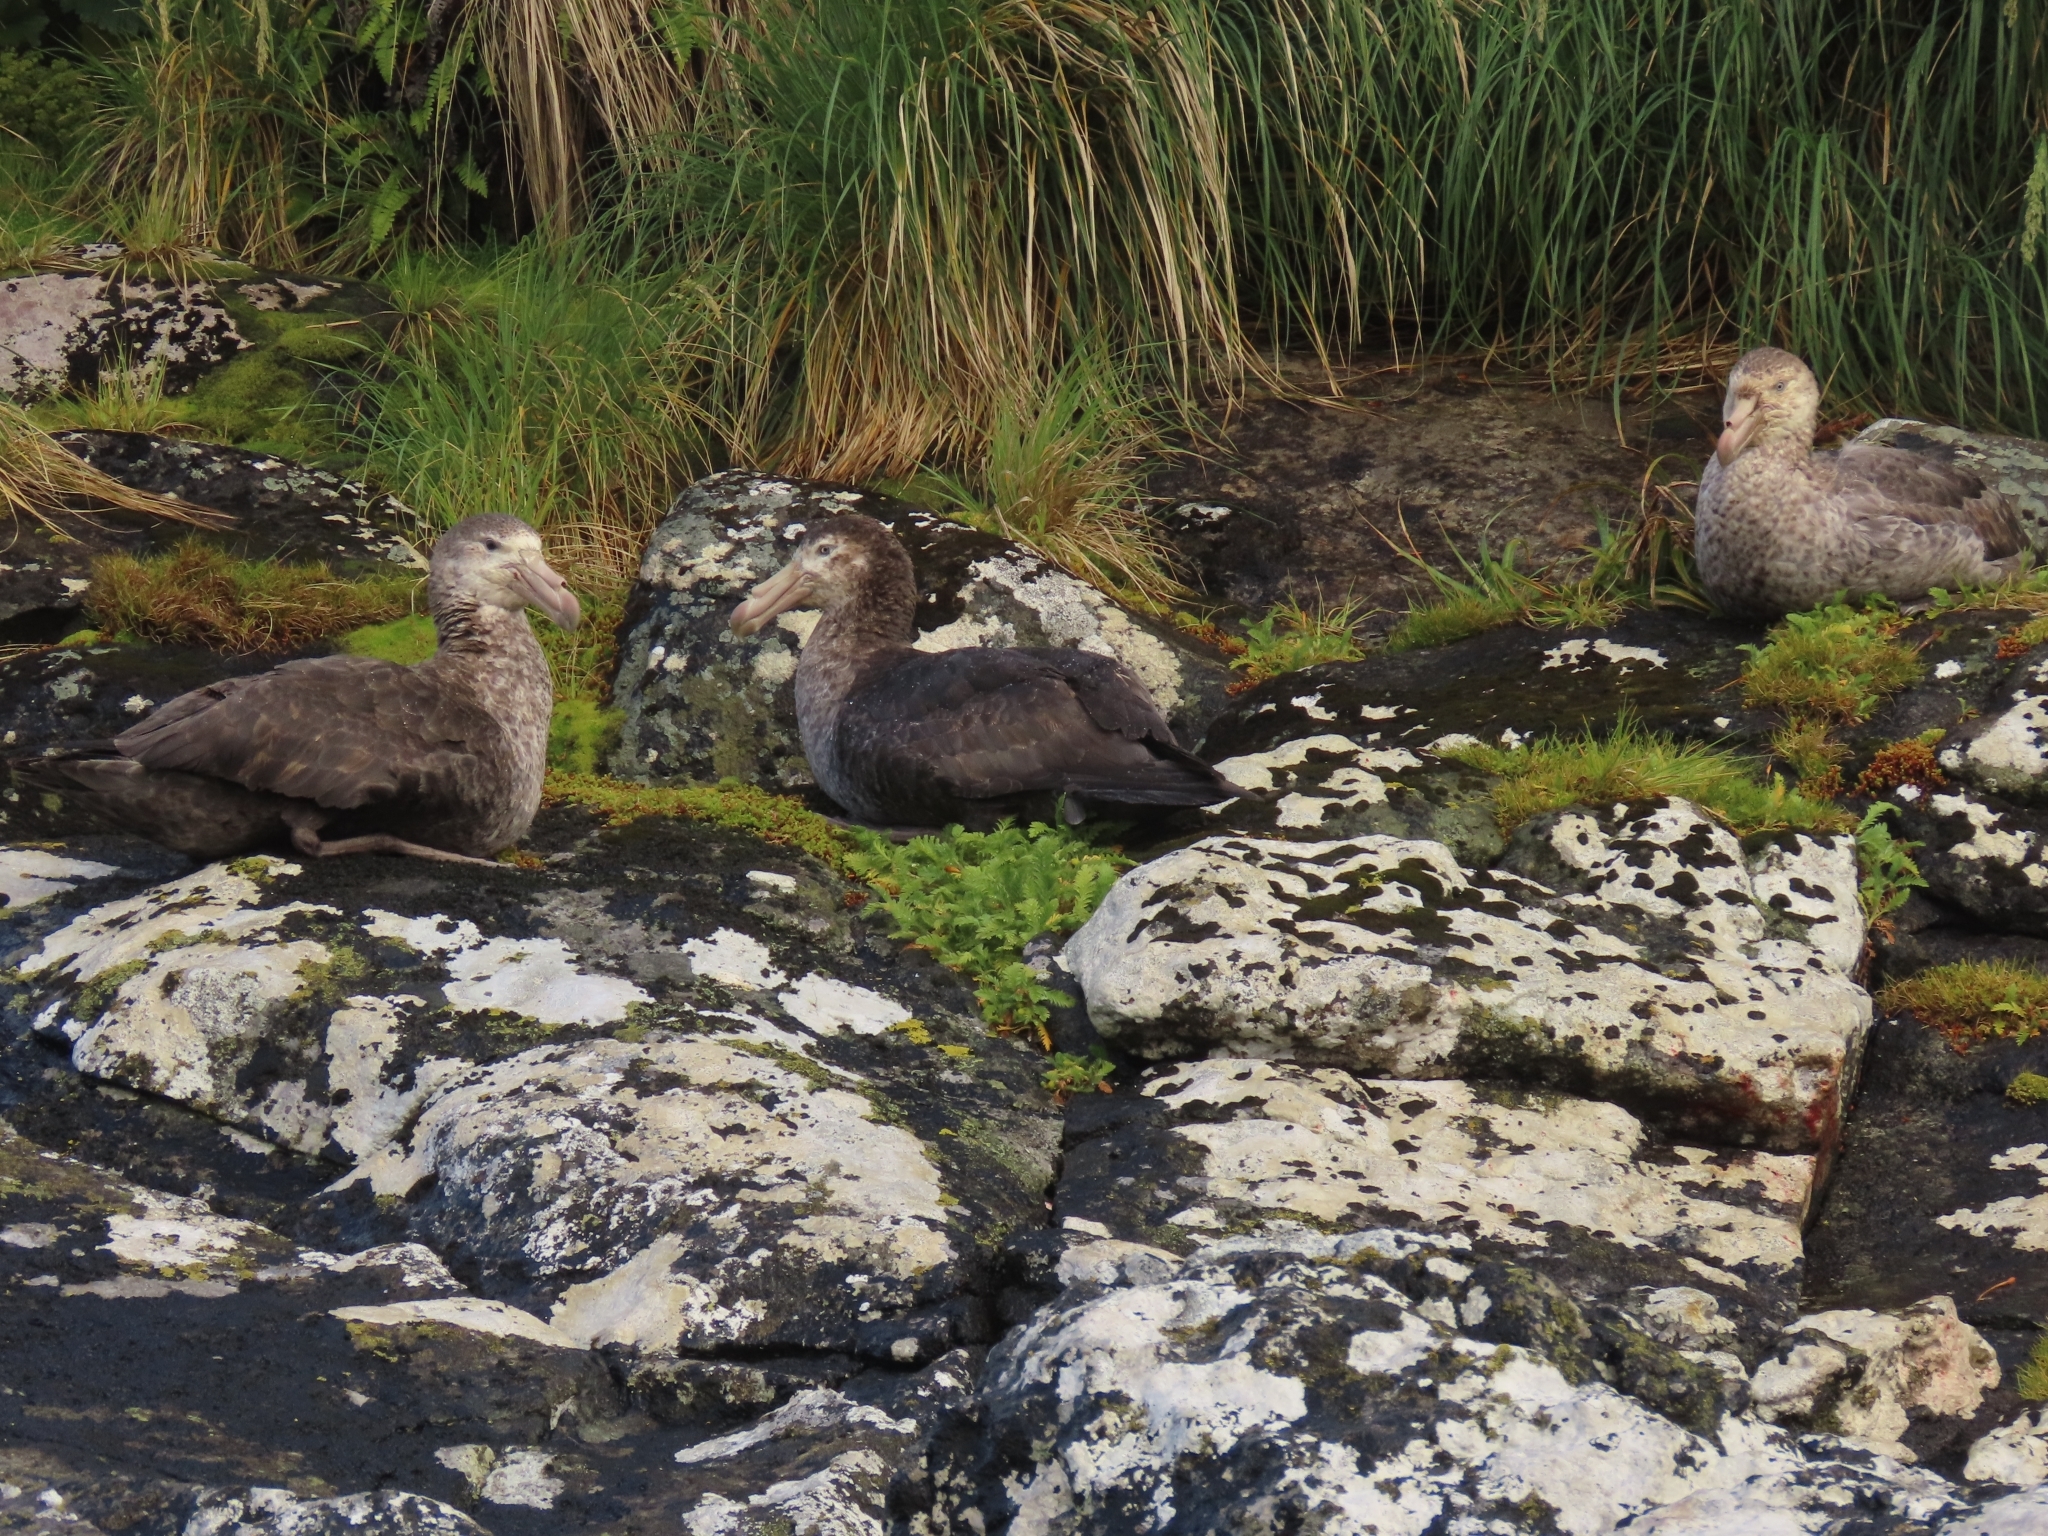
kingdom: Animalia
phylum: Chordata
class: Aves
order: Procellariiformes
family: Procellariidae
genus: Macronectes
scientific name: Macronectes halli
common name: Northern giant petrel
